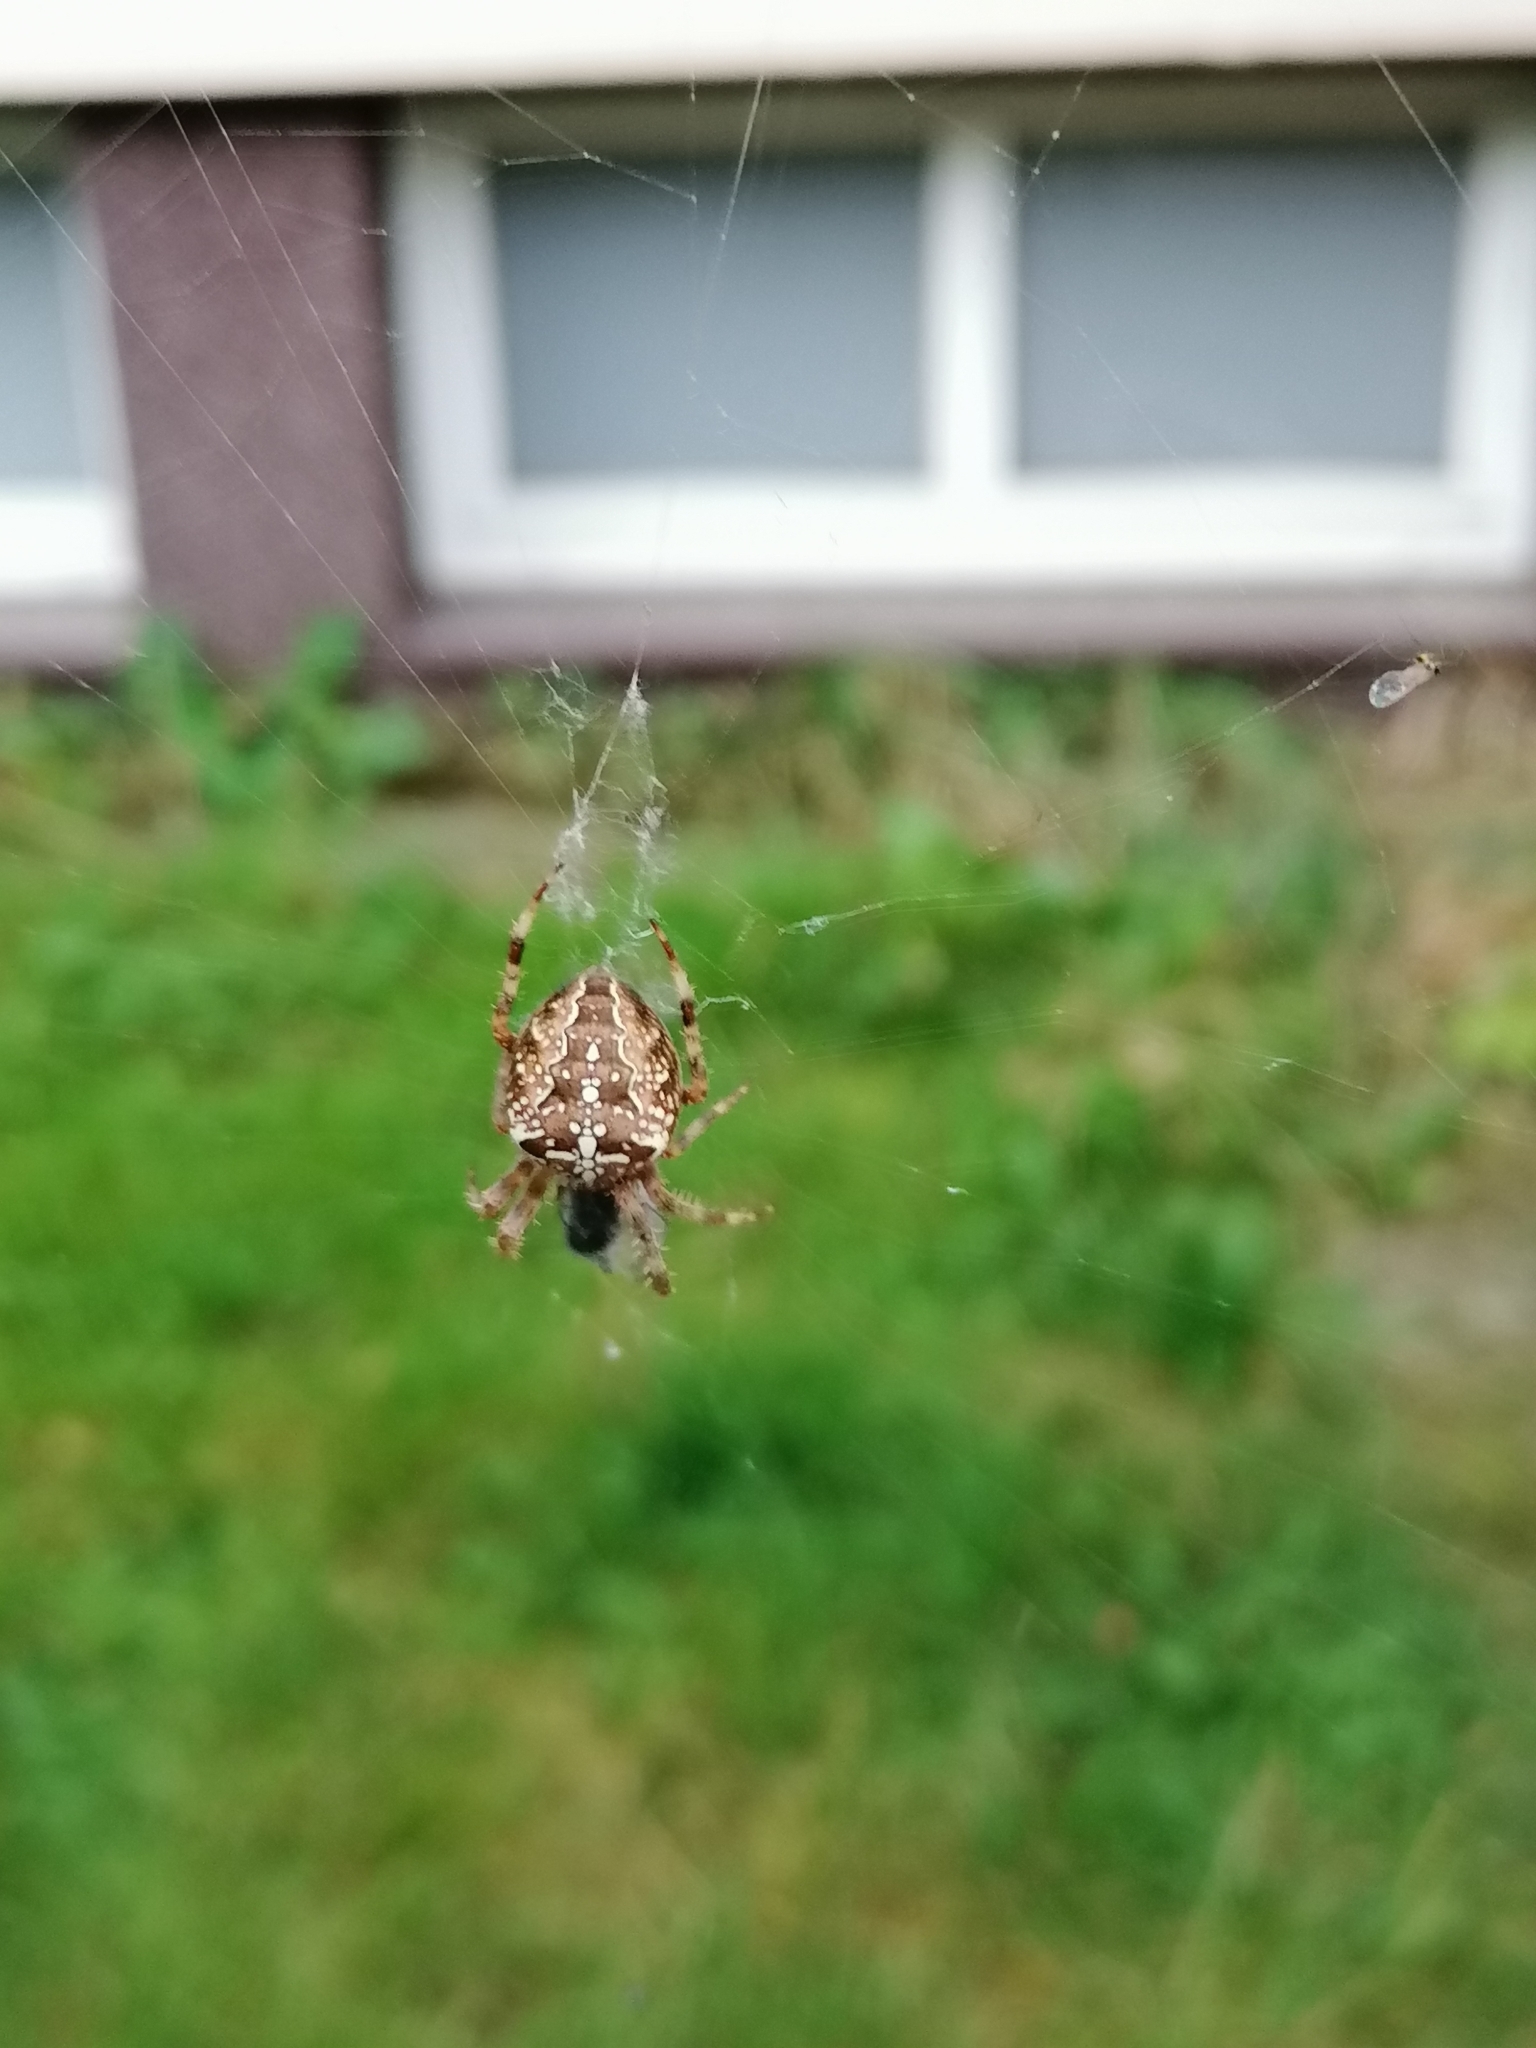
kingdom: Animalia
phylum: Arthropoda
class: Arachnida
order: Araneae
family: Araneidae
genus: Araneus
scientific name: Araneus diadematus
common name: Cross orbweaver
